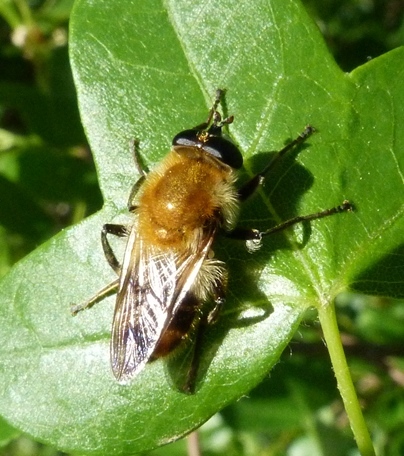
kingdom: Animalia
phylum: Arthropoda
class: Insecta
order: Diptera
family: Syrphidae
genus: Criorhina
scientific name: Criorhina floccosa
